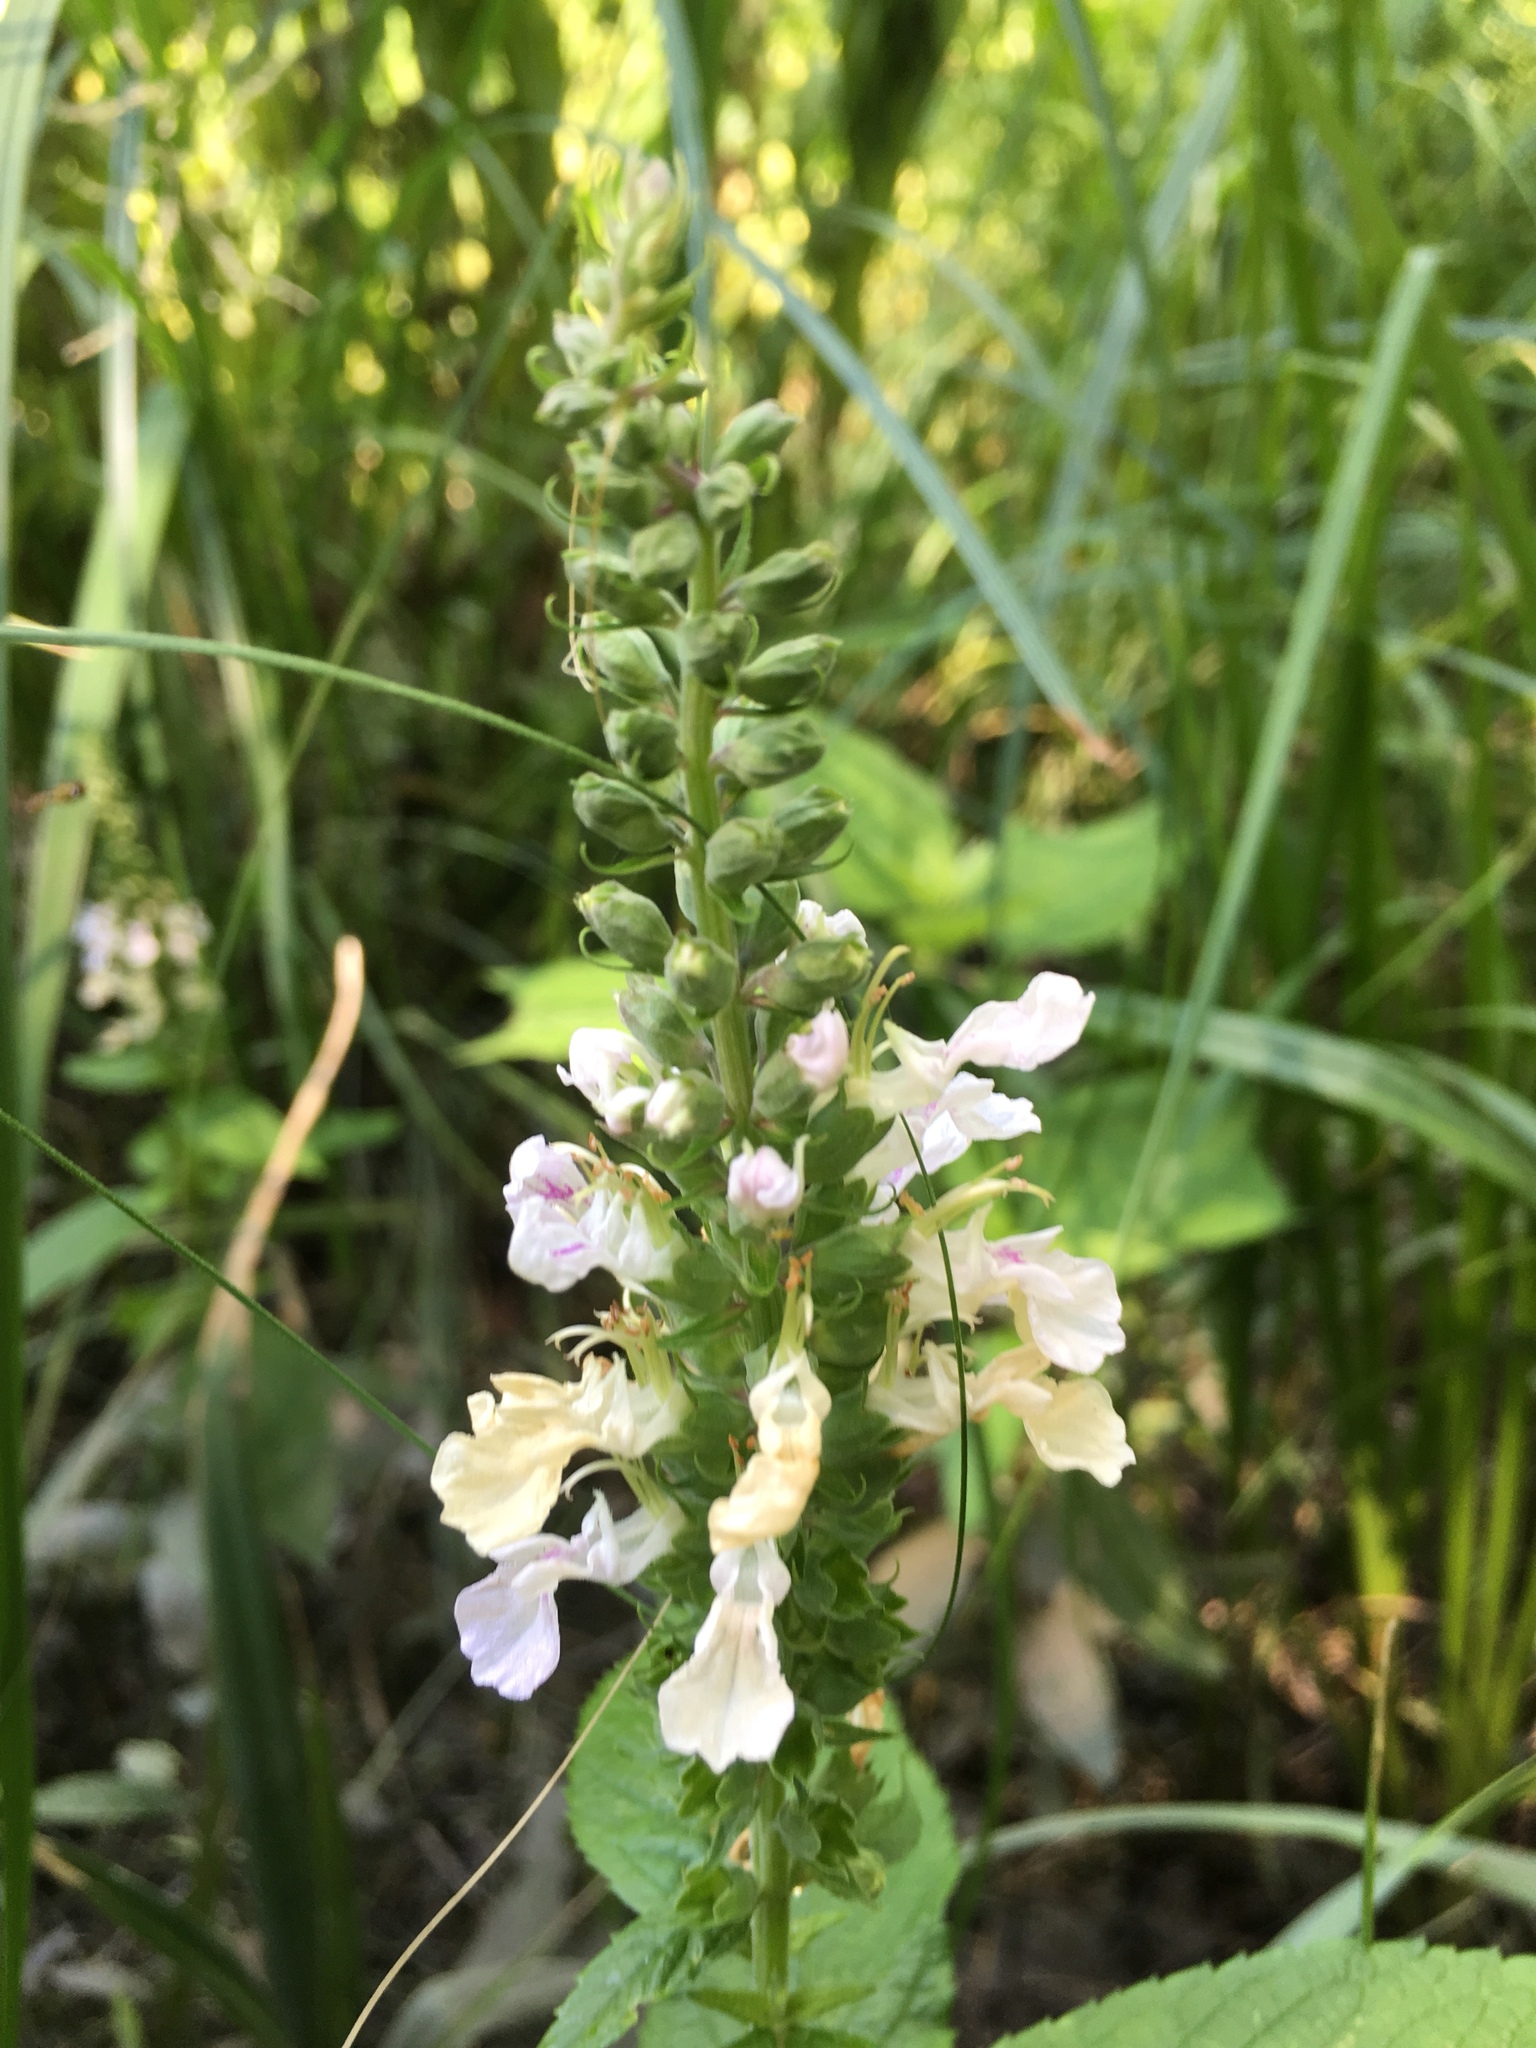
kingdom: Plantae
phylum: Tracheophyta
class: Magnoliopsida
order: Lamiales
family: Lamiaceae
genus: Teucrium
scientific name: Teucrium canadense
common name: American germander
